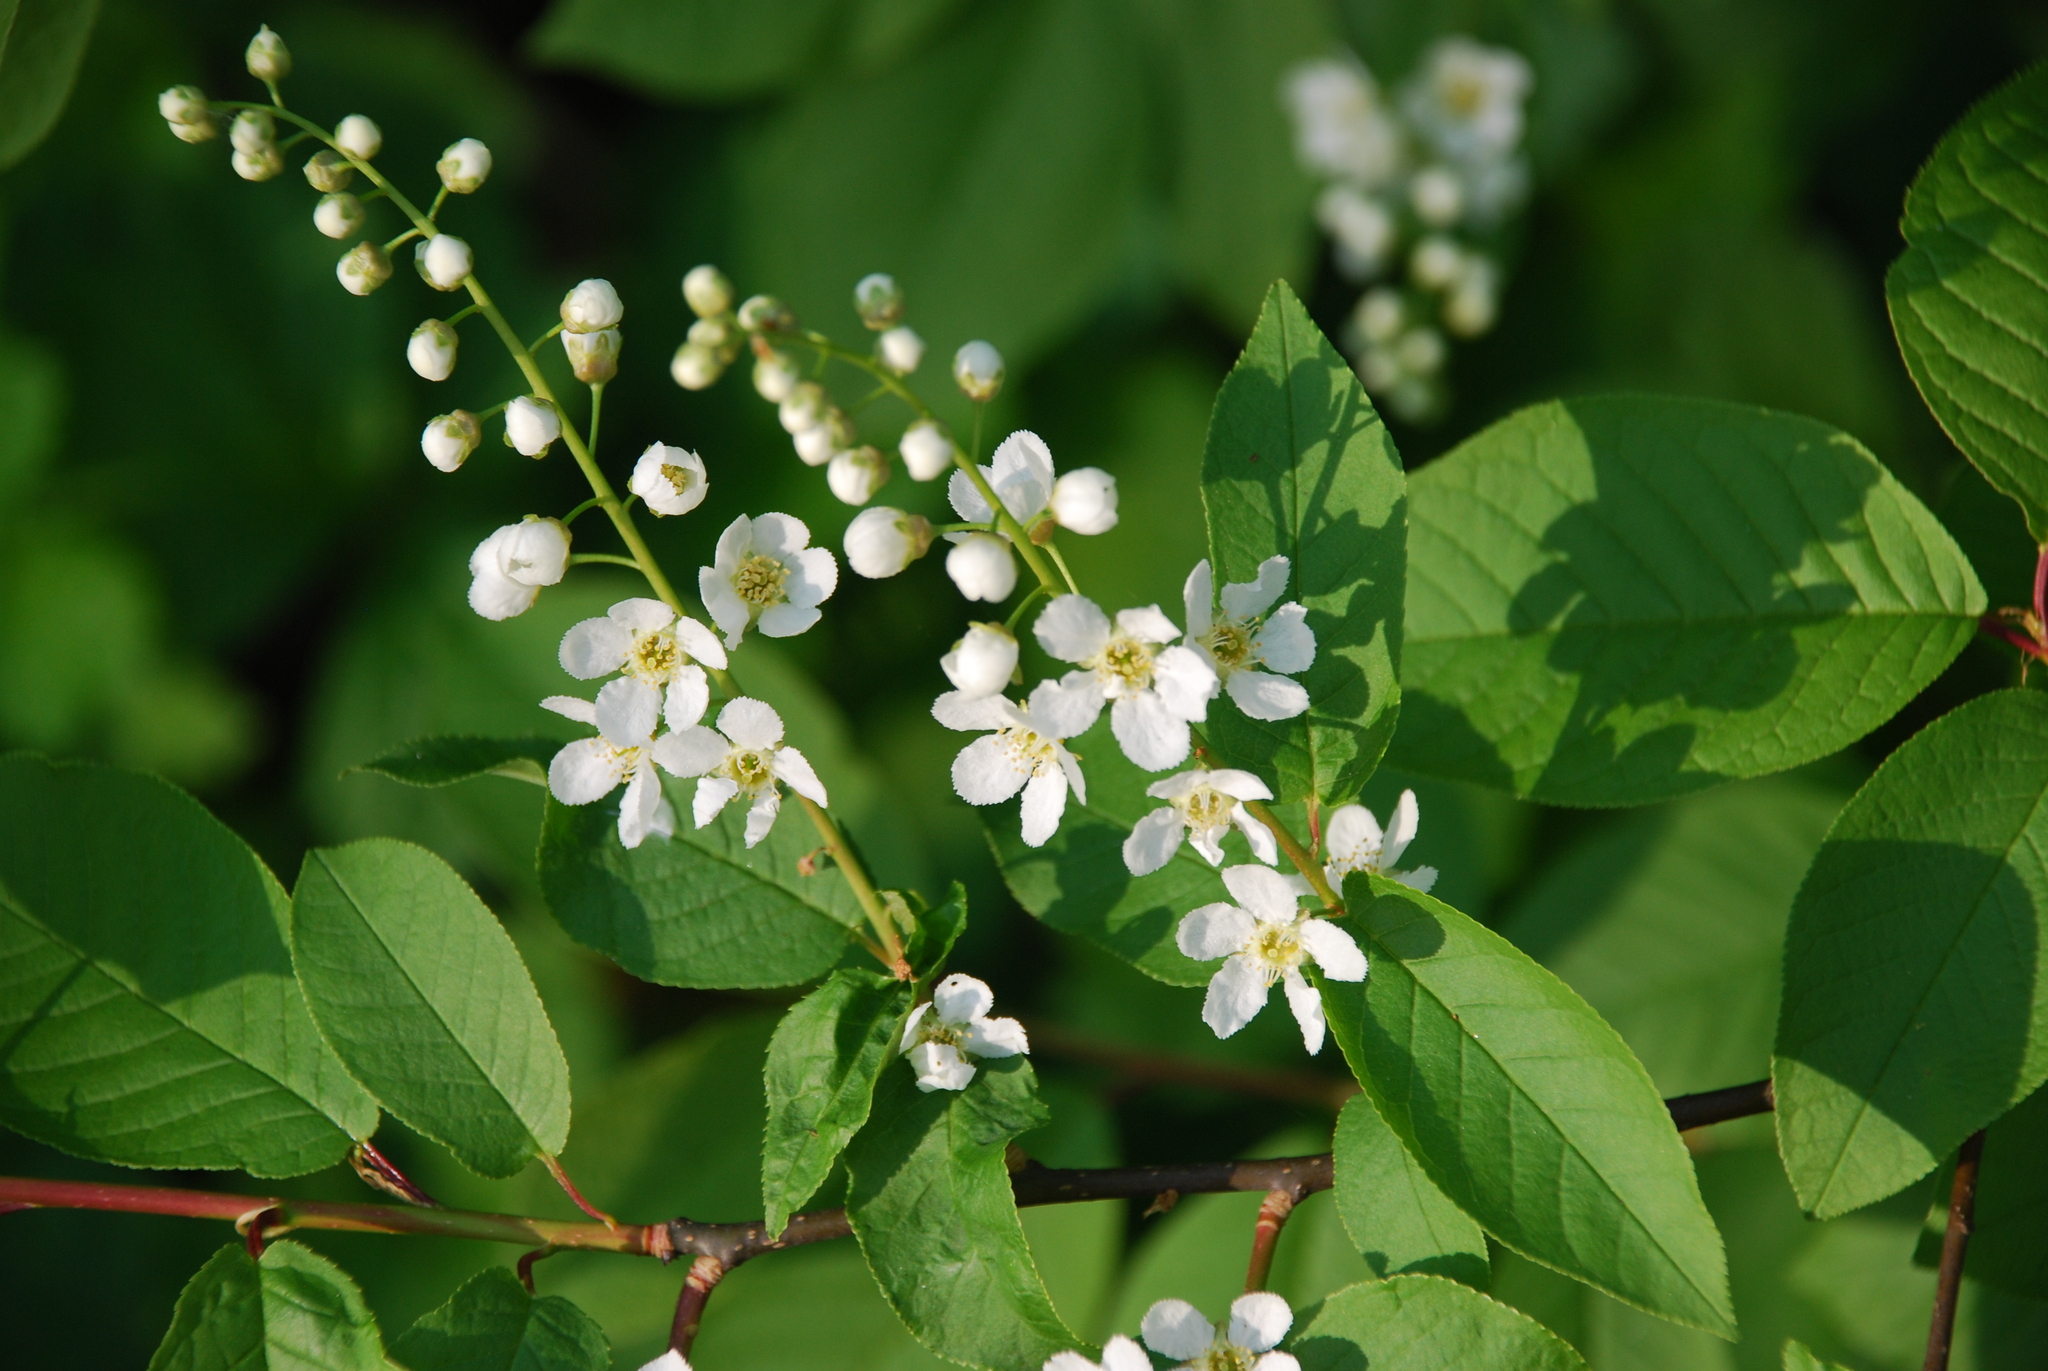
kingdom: Plantae
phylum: Tracheophyta
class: Magnoliopsida
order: Rosales
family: Rosaceae
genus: Prunus
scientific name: Prunus padus
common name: Bird cherry
